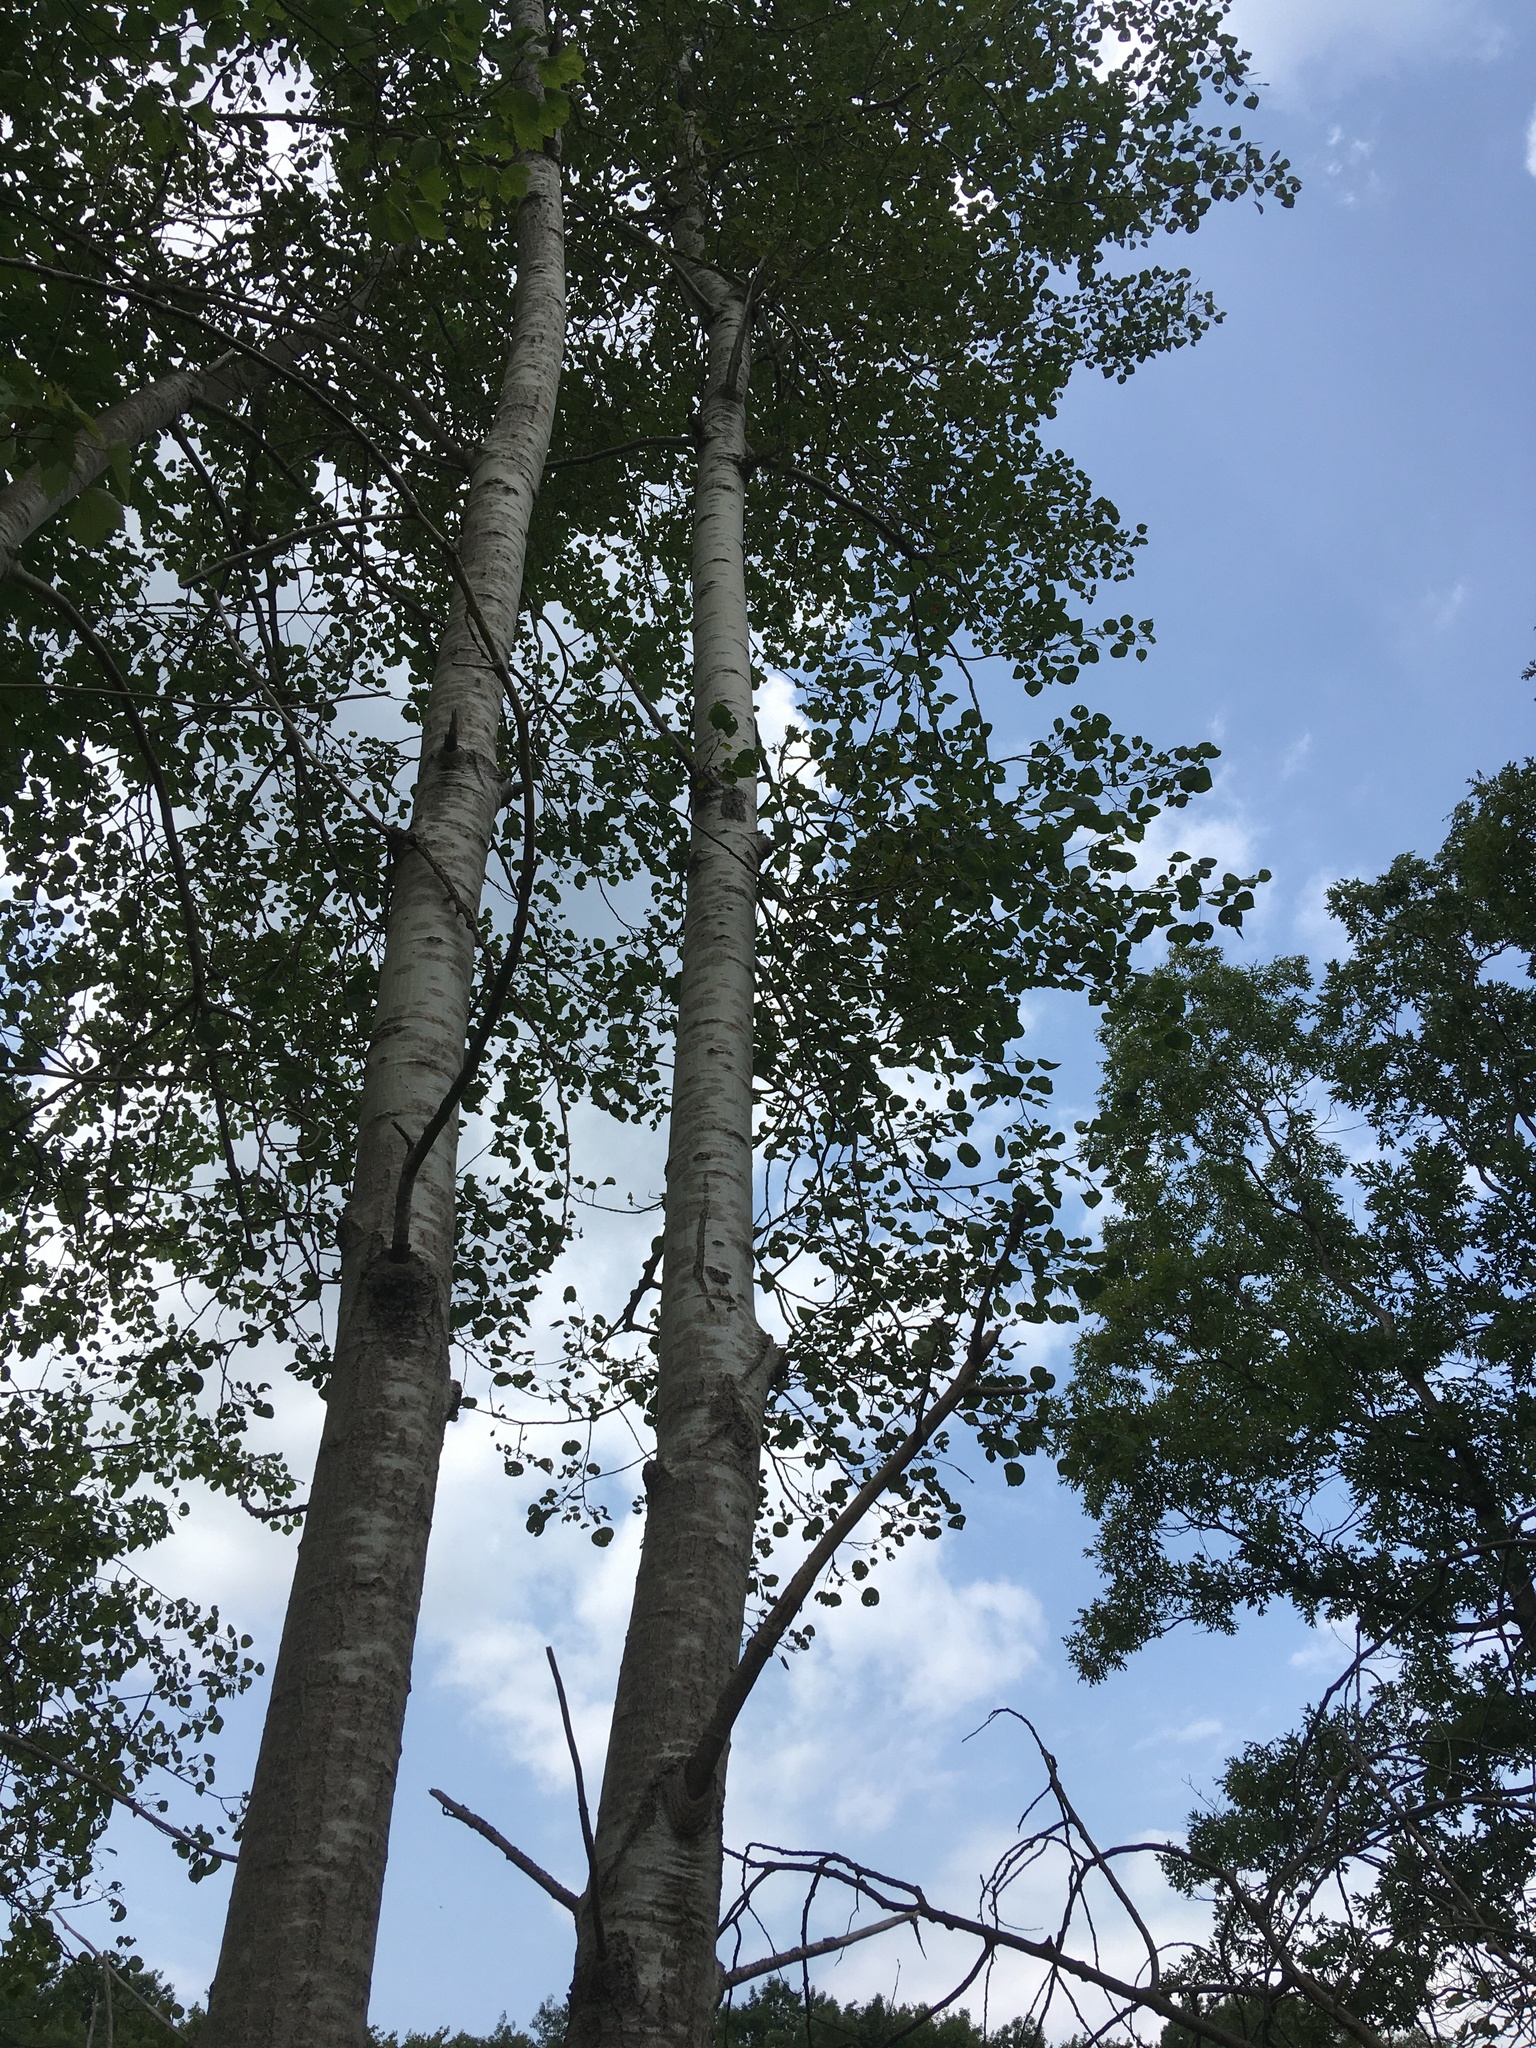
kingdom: Plantae
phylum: Tracheophyta
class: Magnoliopsida
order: Malpighiales
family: Salicaceae
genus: Populus
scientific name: Populus tremuloides
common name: Quaking aspen
